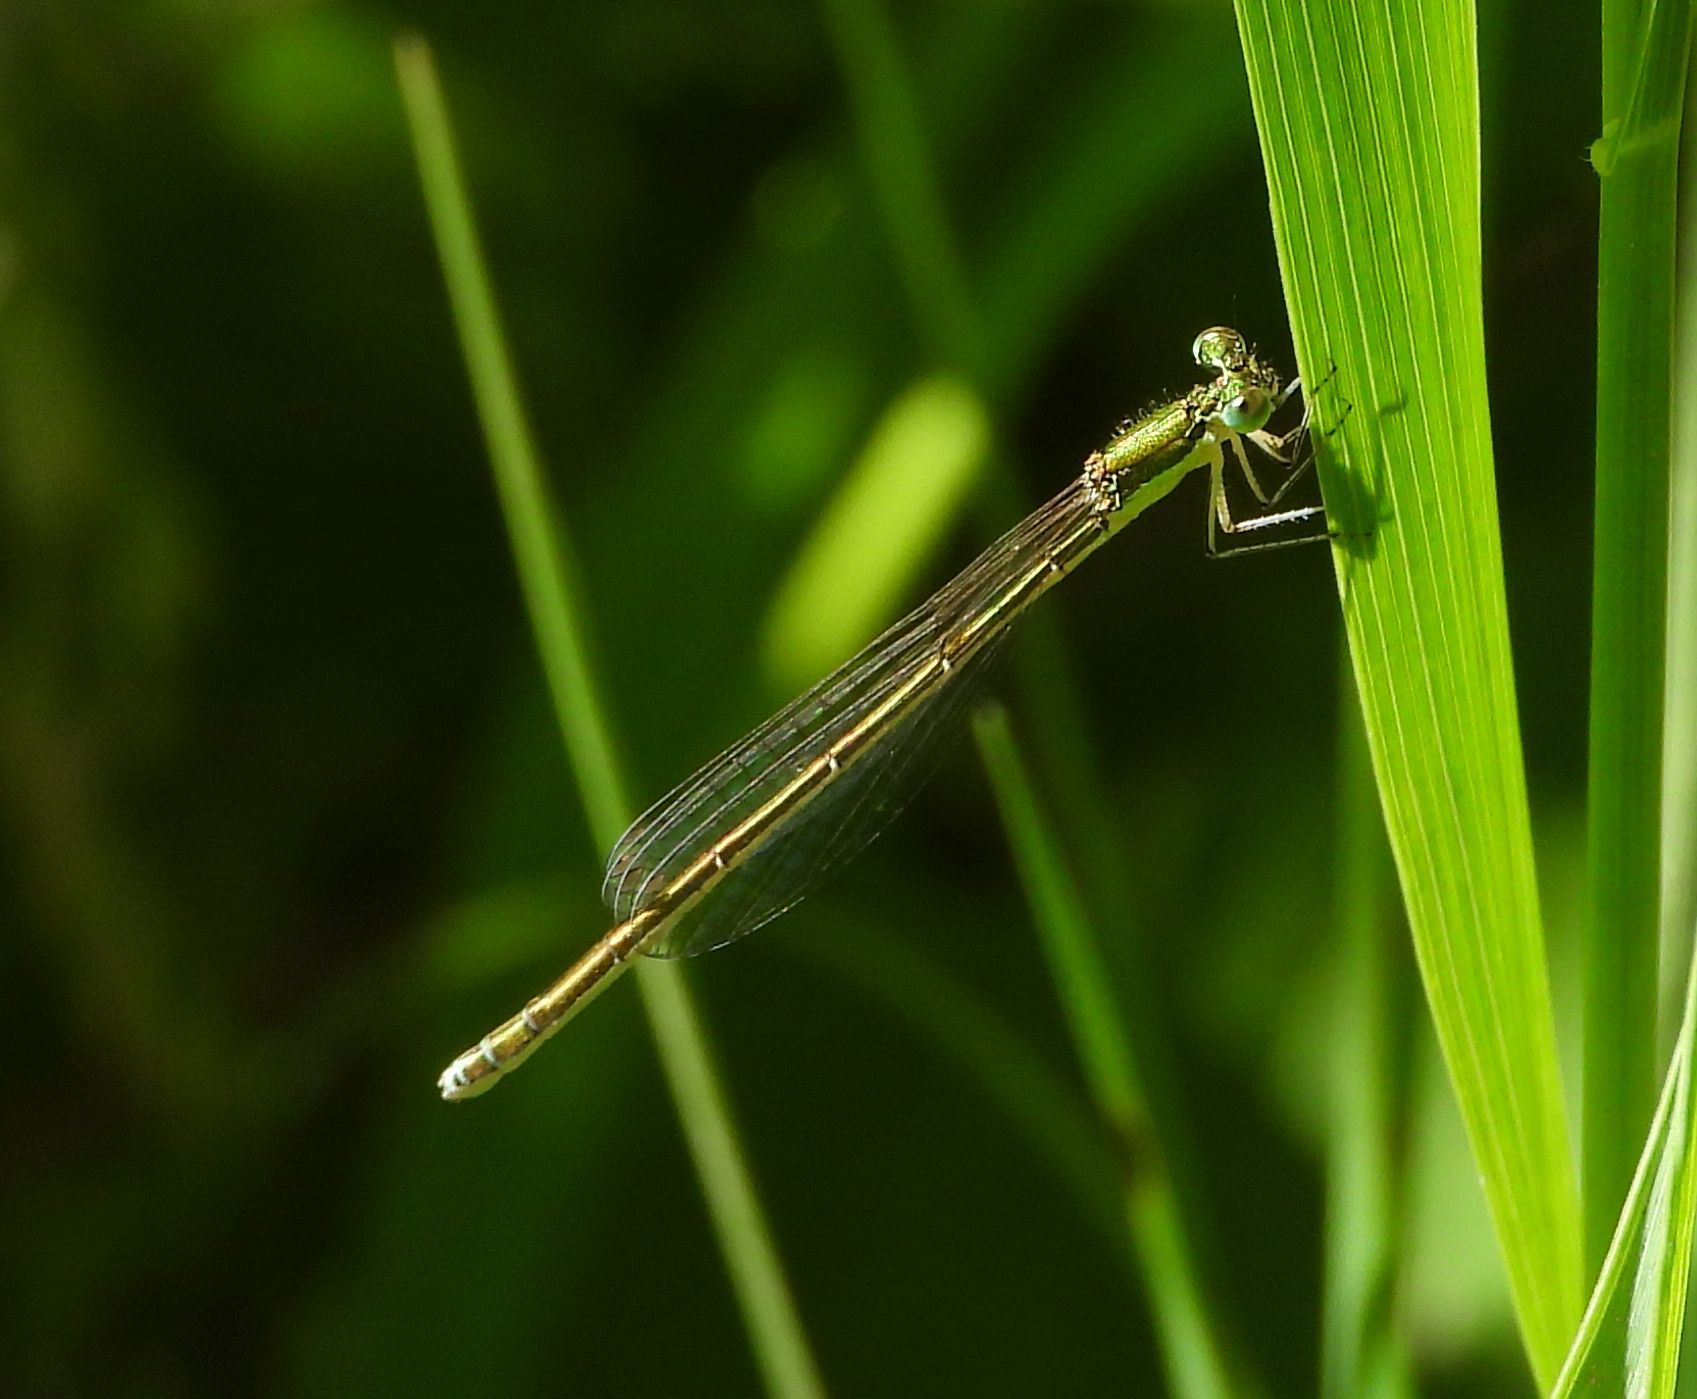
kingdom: Animalia
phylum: Arthropoda
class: Insecta
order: Odonata
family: Coenagrionidae
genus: Nehalennia
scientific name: Nehalennia irene
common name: Sedge sprite
